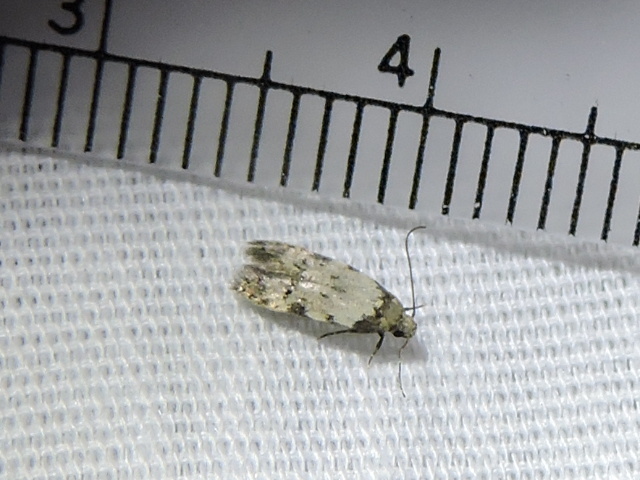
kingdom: Animalia
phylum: Arthropoda
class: Insecta
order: Lepidoptera
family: Autostichidae
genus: Taygete
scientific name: Taygete attributella
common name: Triangle-marked twirler moth
